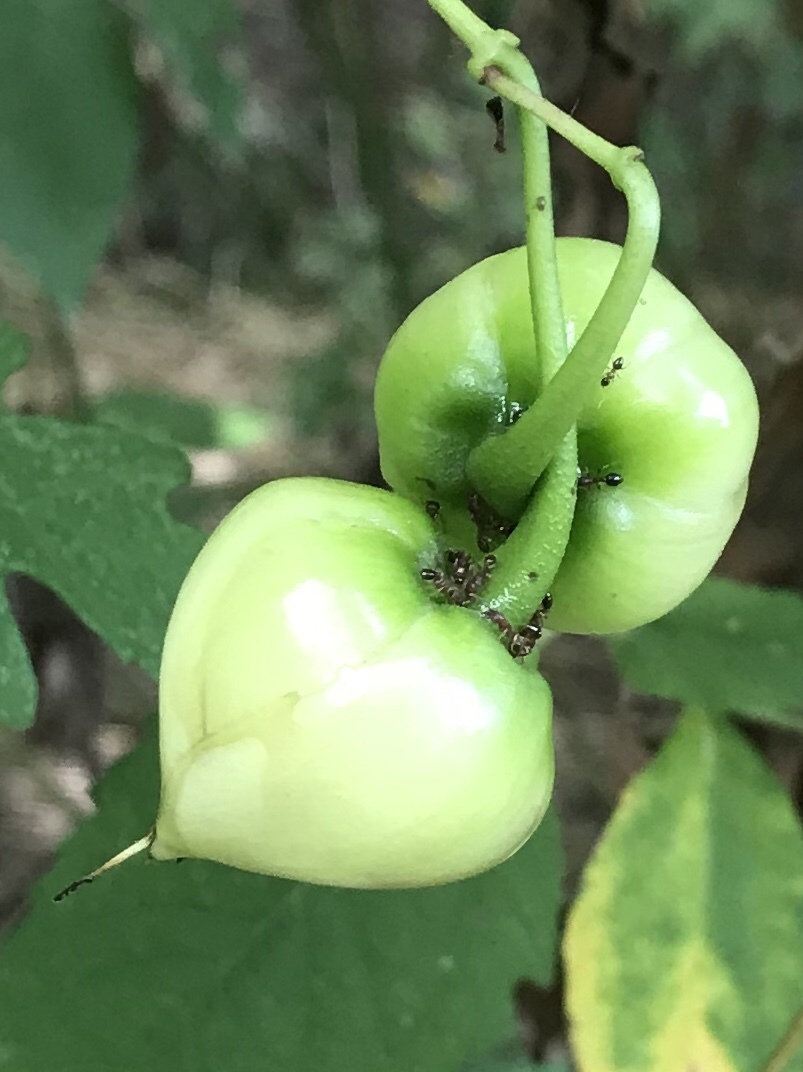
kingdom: Plantae
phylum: Tracheophyta
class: Magnoliopsida
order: Solanales
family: Convolvulaceae
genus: Distimake
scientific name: Distimake dissectus
